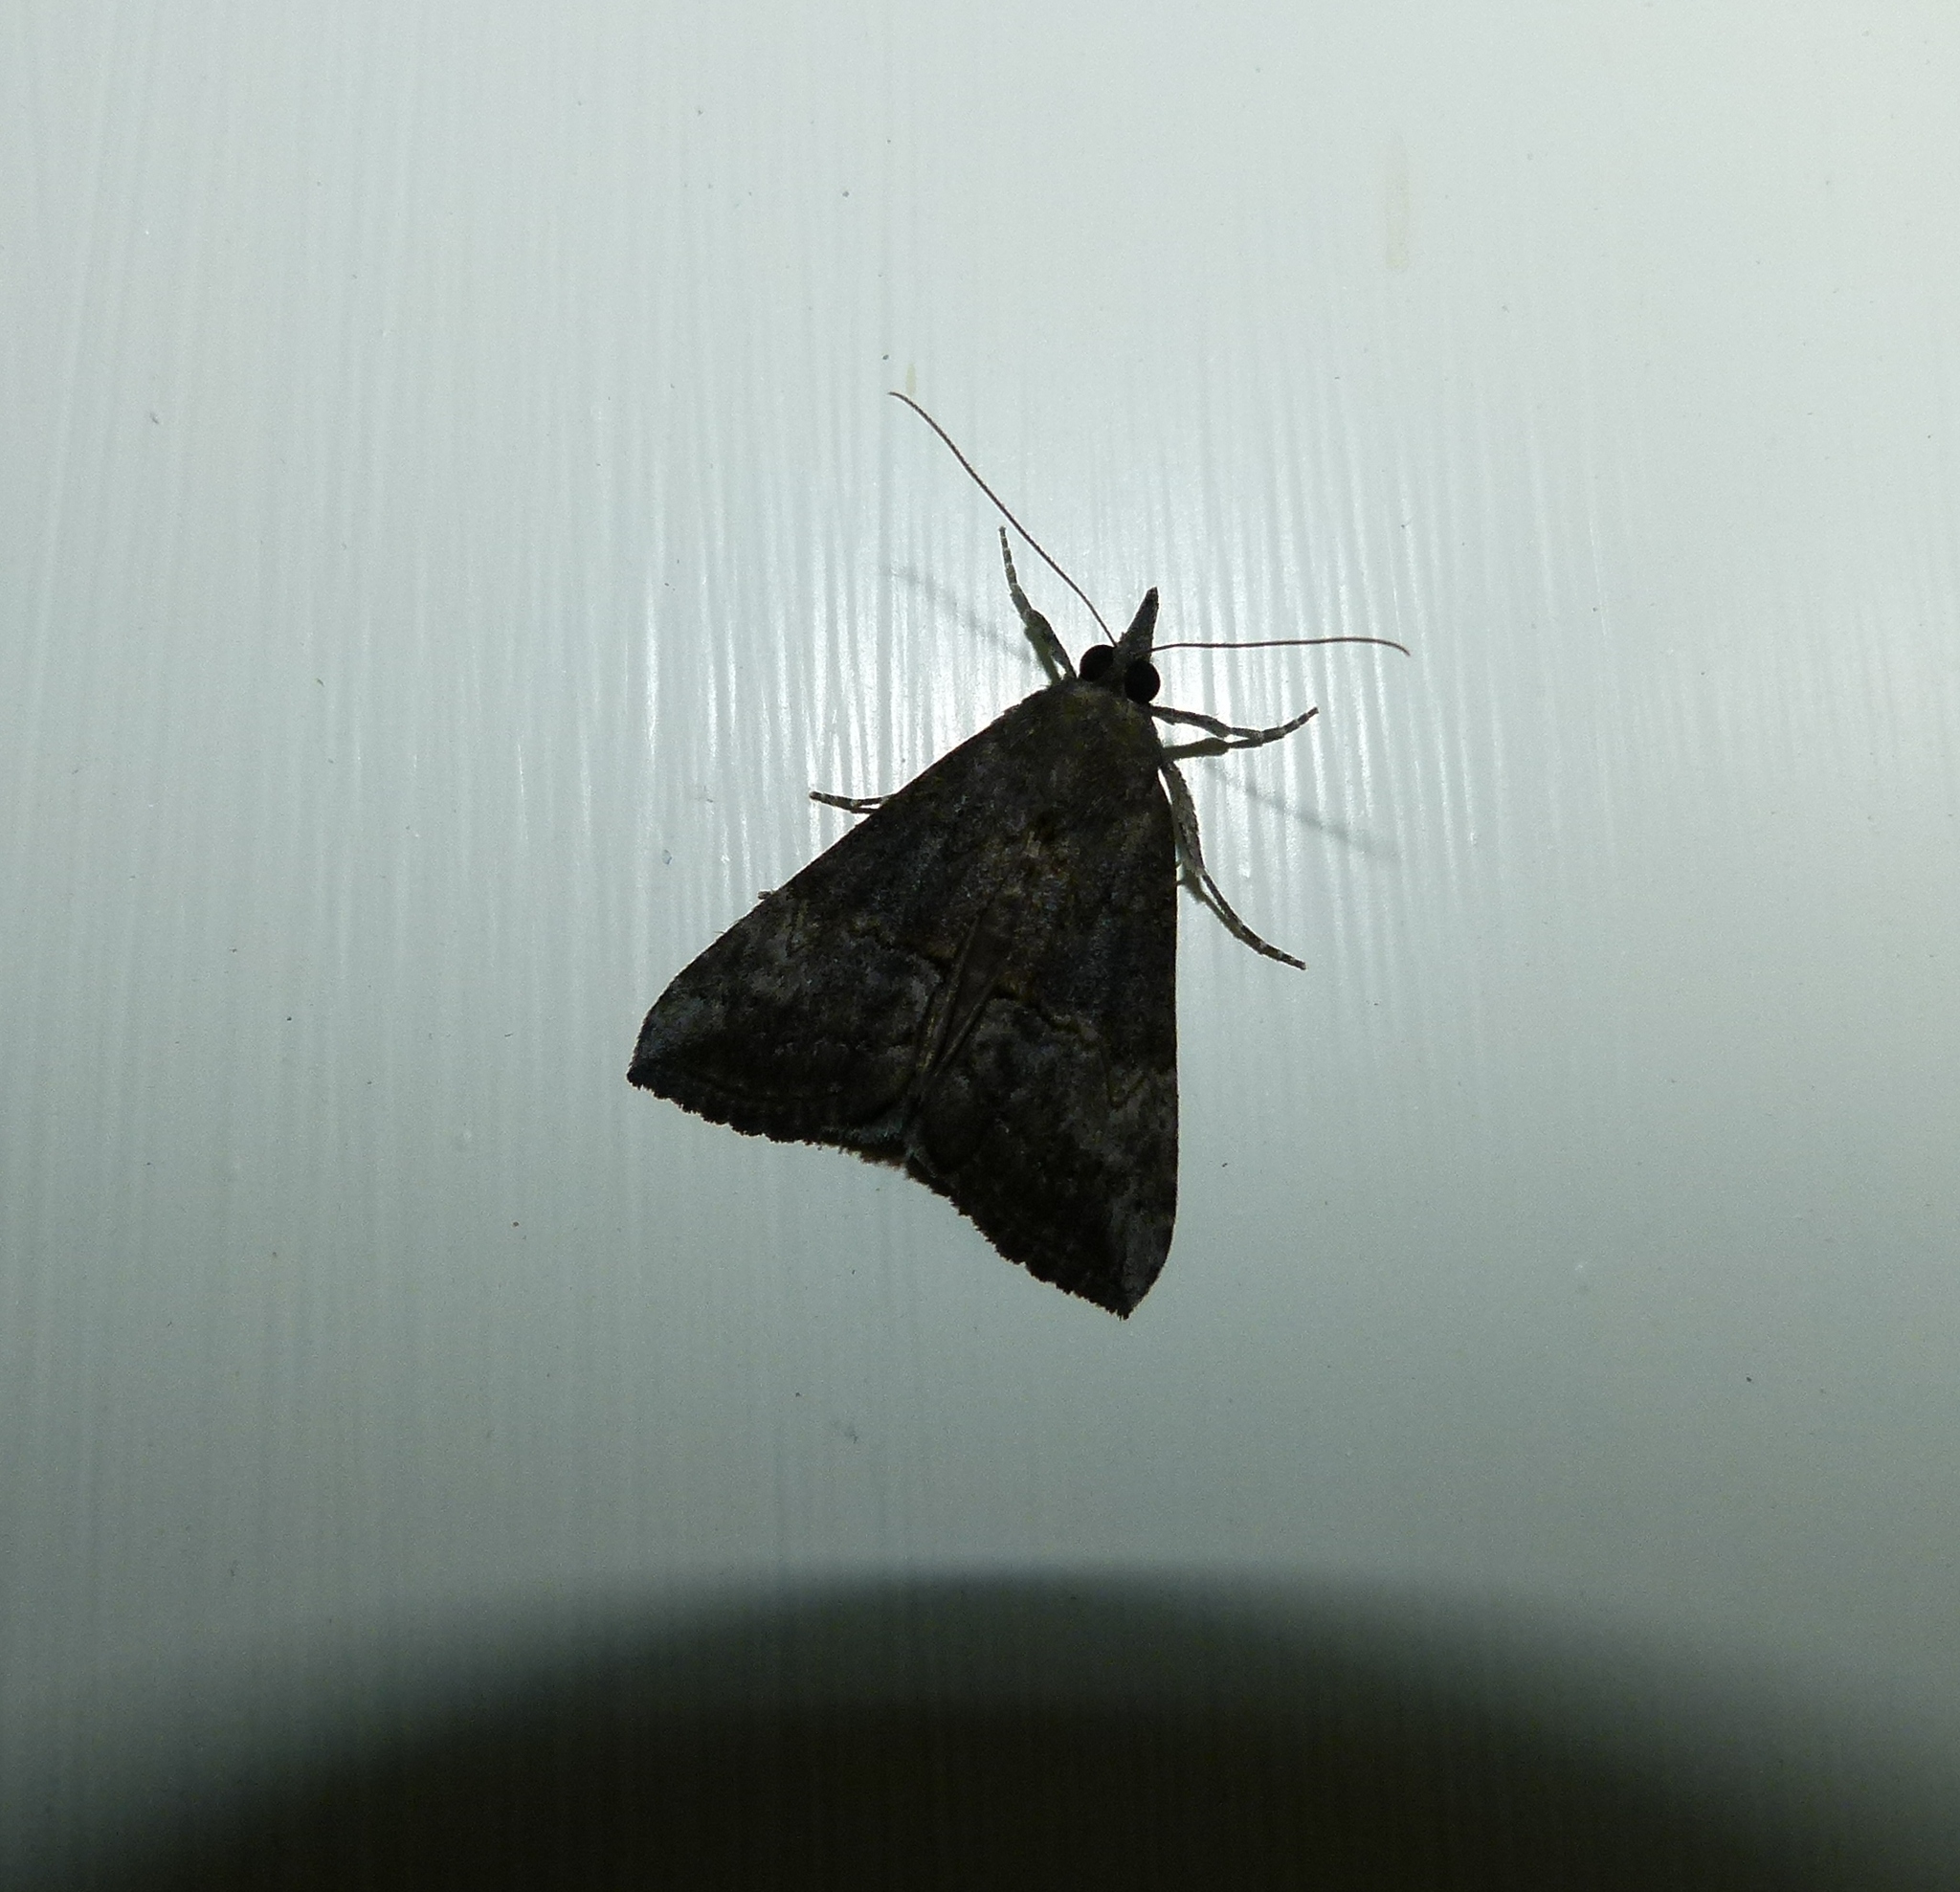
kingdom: Animalia
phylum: Arthropoda
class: Insecta
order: Lepidoptera
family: Erebidae
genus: Hypena
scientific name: Hypena scabra
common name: Green cloverworm
